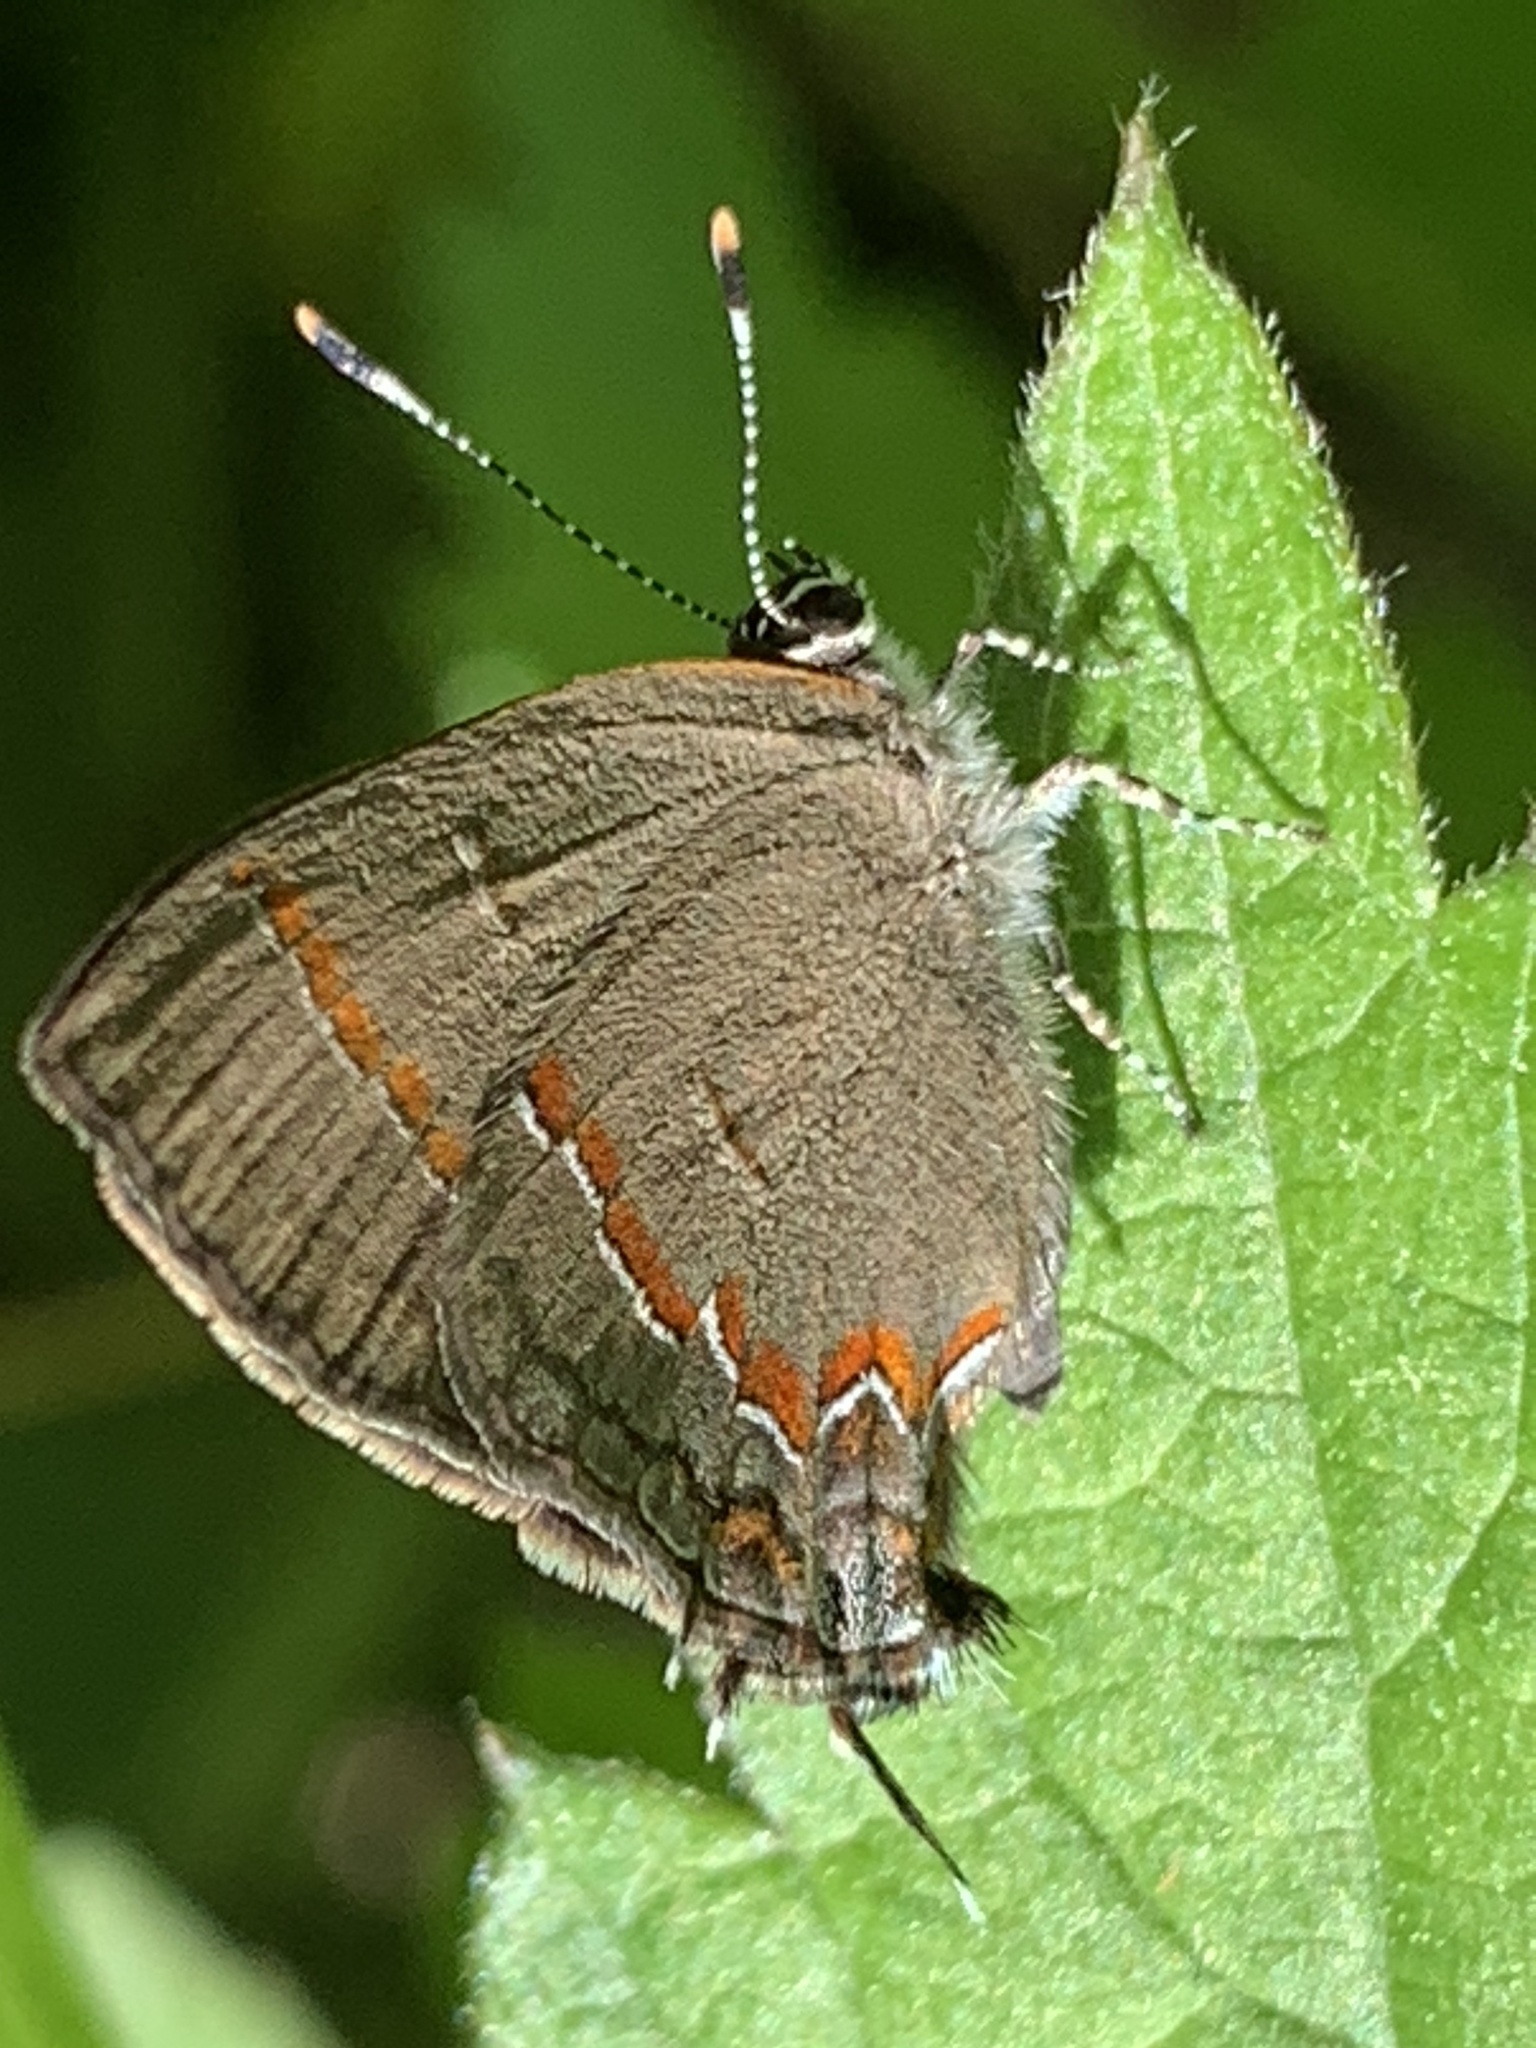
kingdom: Animalia
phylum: Arthropoda
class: Insecta
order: Lepidoptera
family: Lycaenidae
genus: Calycopis
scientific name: Calycopis cecrops
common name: Red-banded hairstreak
